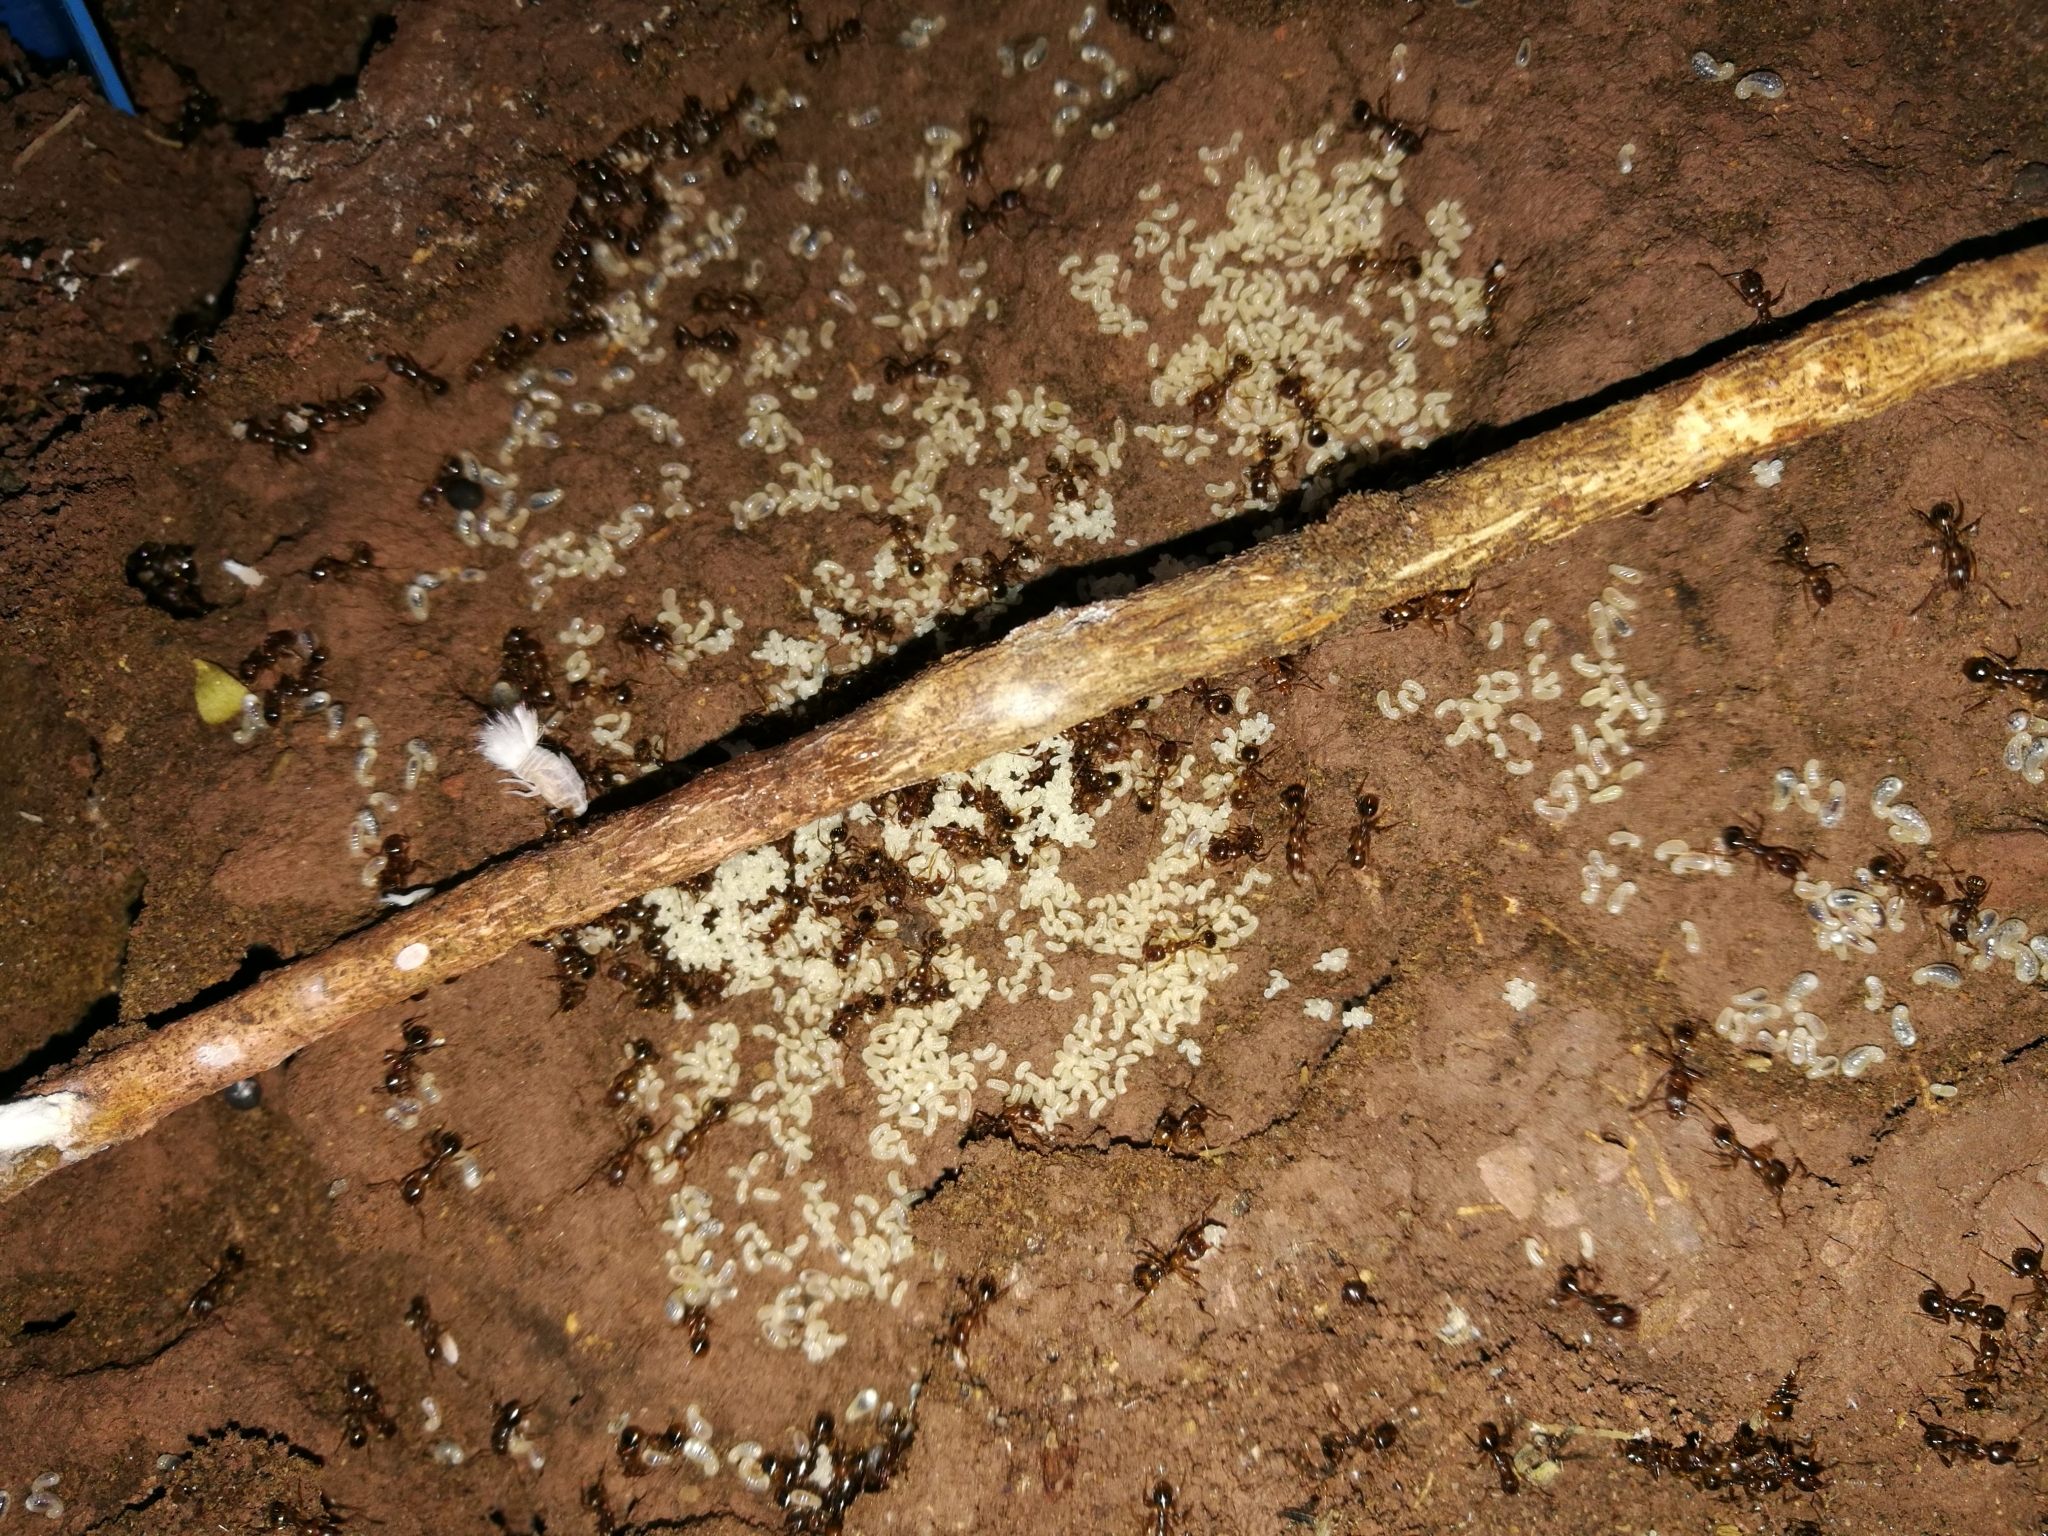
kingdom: Animalia
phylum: Arthropoda
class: Insecta
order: Hymenoptera
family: Formicidae
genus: Aphaenogaster
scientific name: Aphaenogaster subterranea
